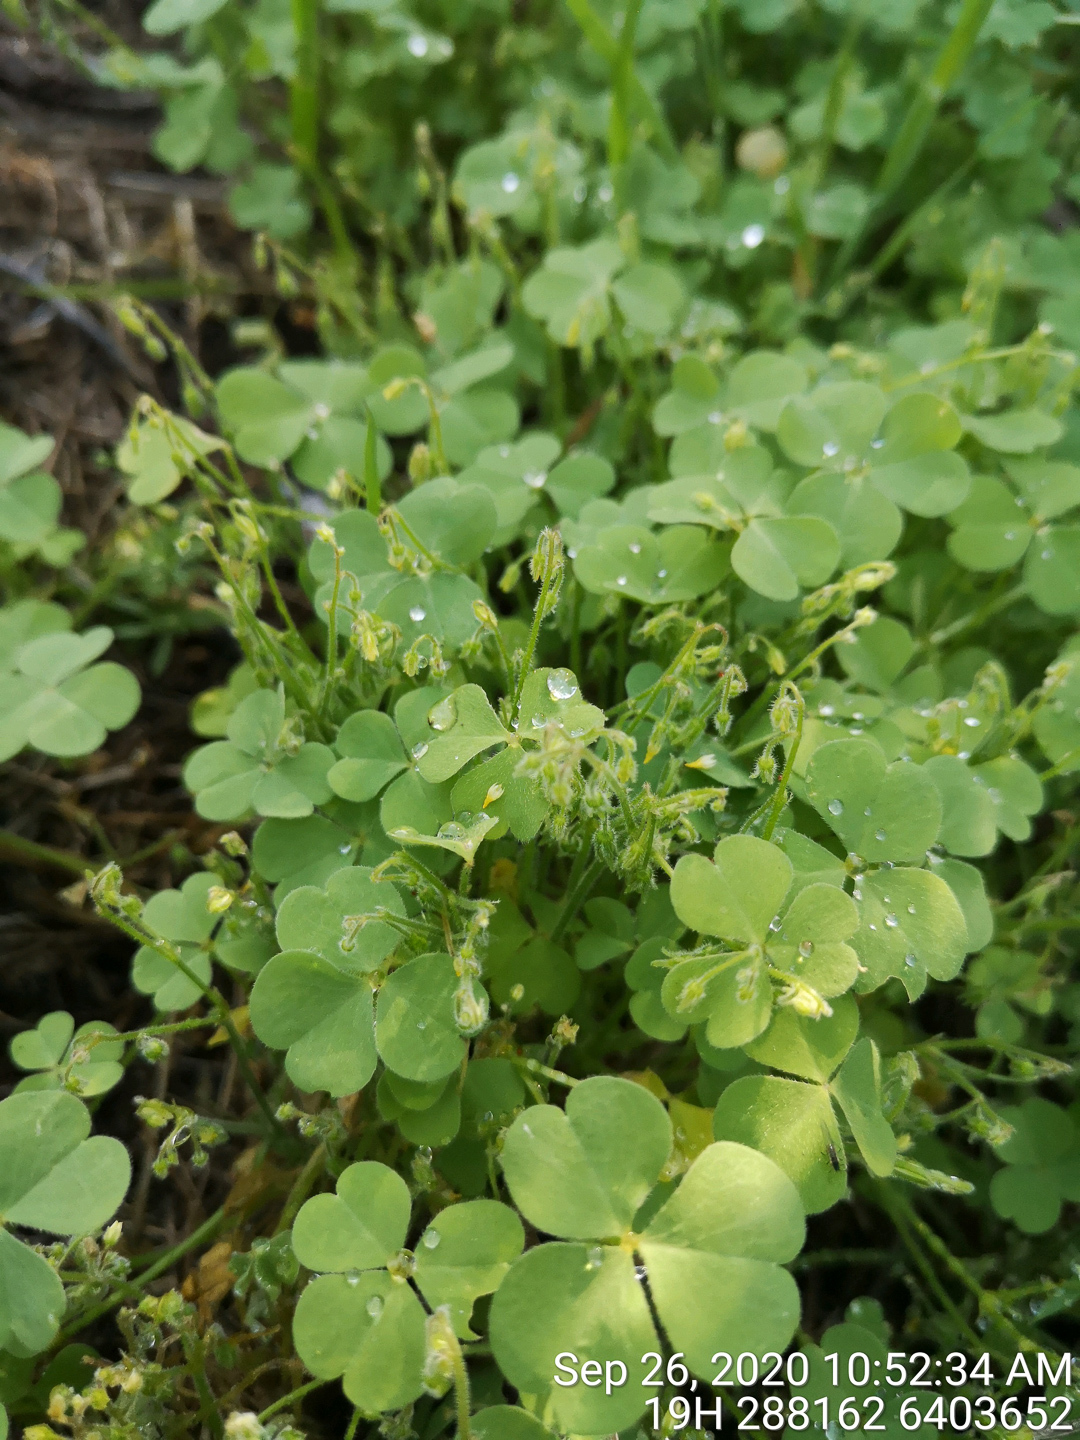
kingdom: Plantae
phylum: Tracheophyta
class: Magnoliopsida
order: Oxalidales
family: Oxalidaceae
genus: Oxalis
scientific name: Oxalis laxa
